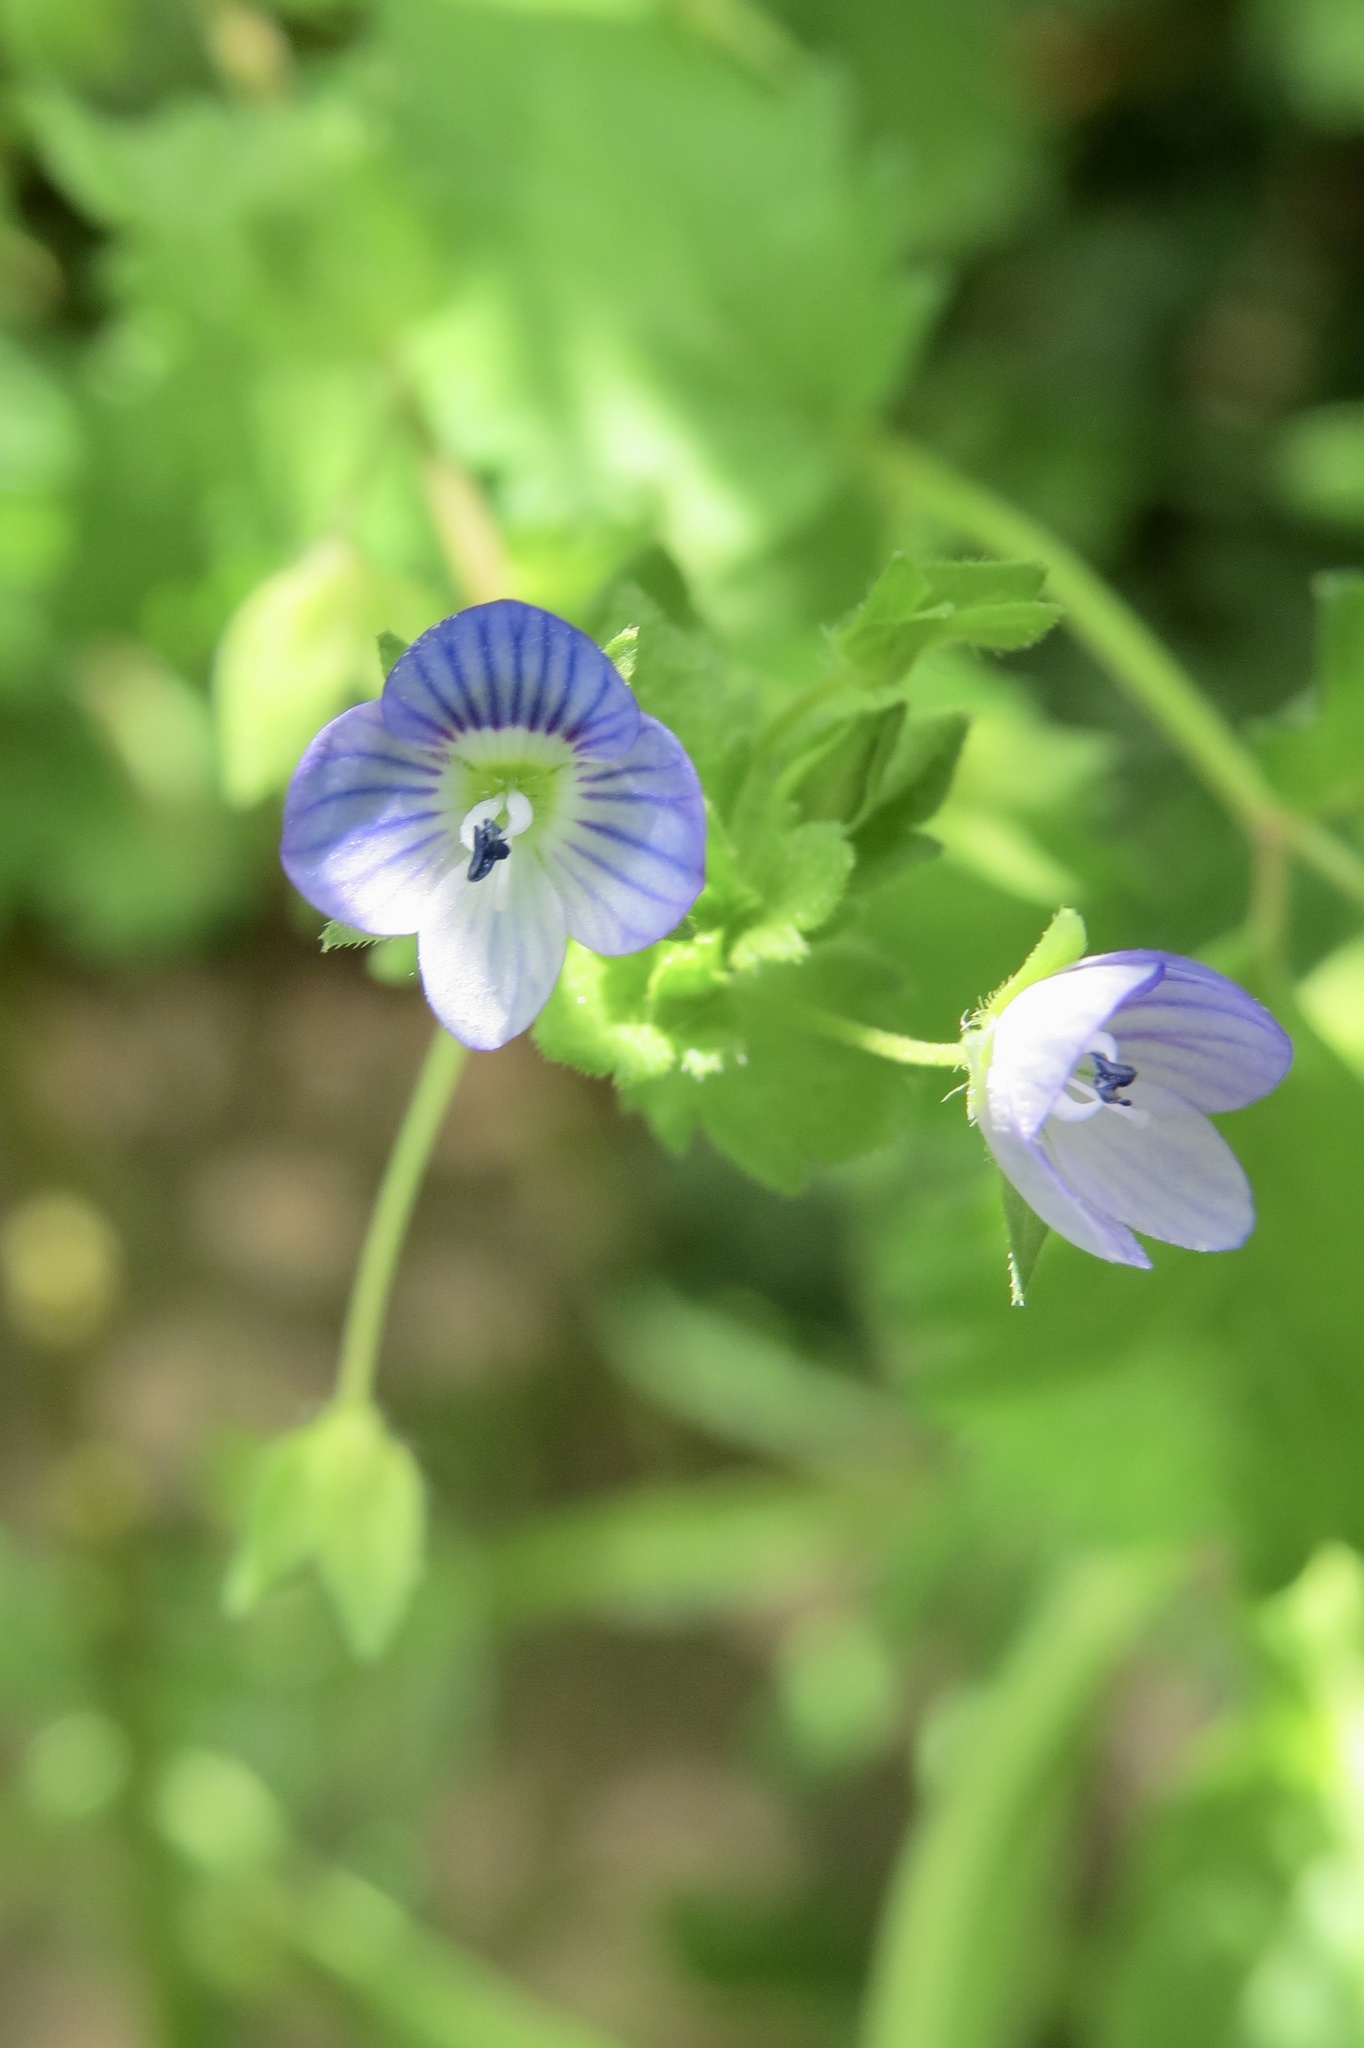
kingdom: Plantae
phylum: Tracheophyta
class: Magnoliopsida
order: Lamiales
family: Plantaginaceae
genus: Veronica
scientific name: Veronica persica
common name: Common field-speedwell
